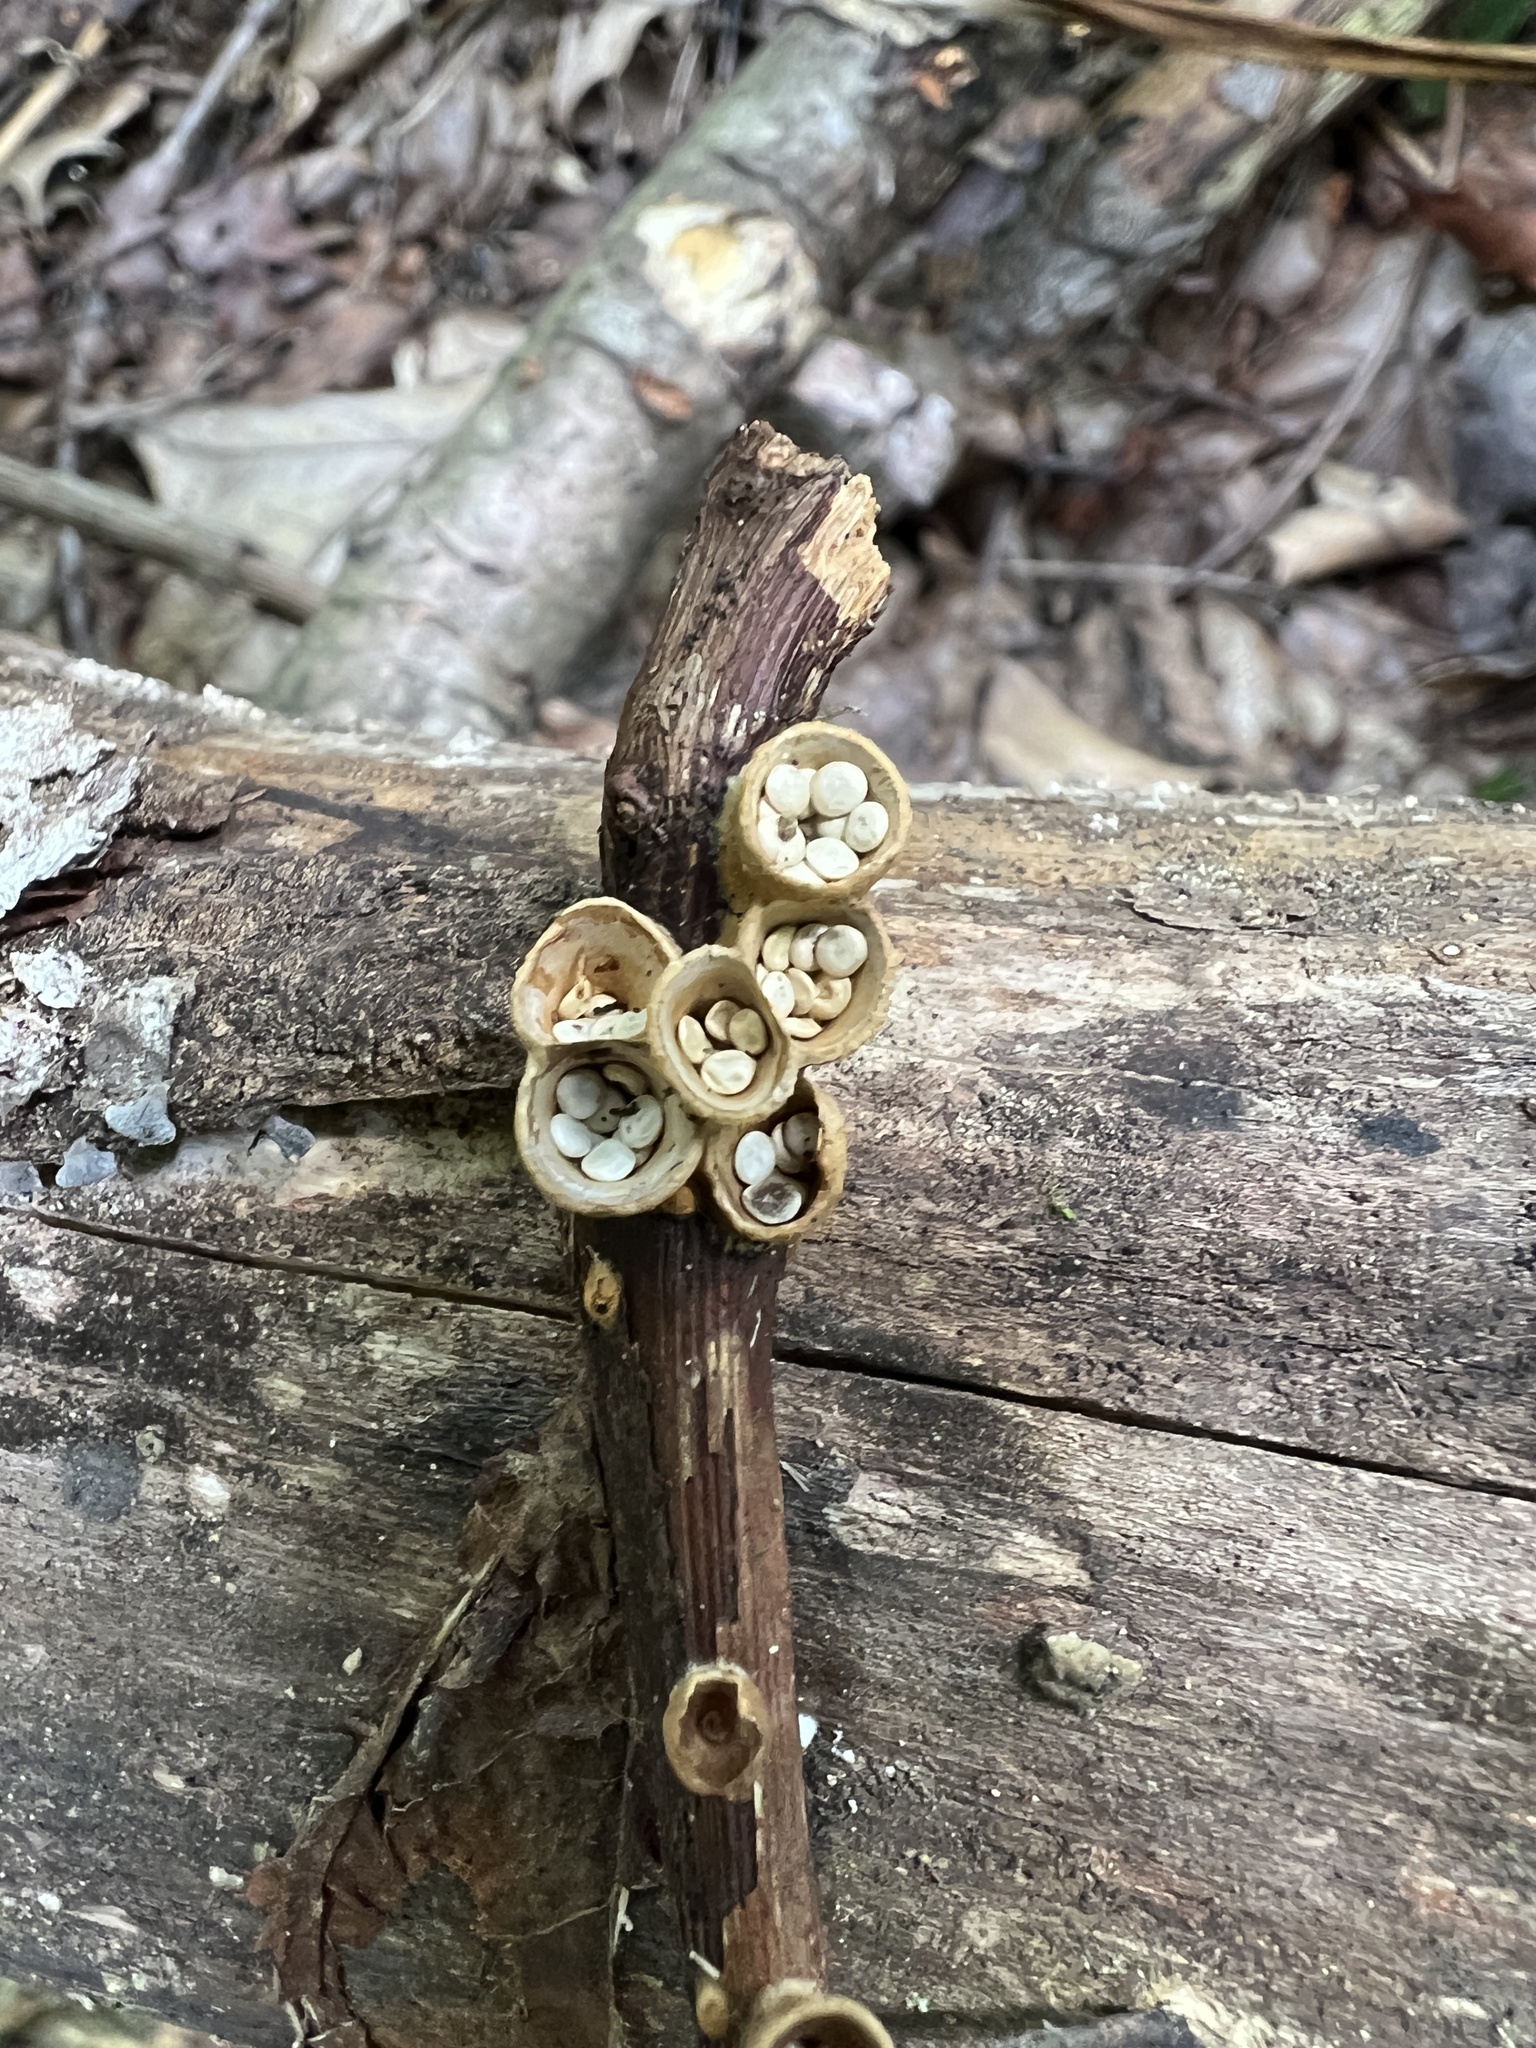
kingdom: Fungi
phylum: Basidiomycota
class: Agaricomycetes
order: Agaricales
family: Nidulariaceae
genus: Crucibulum
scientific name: Crucibulum parvulum
